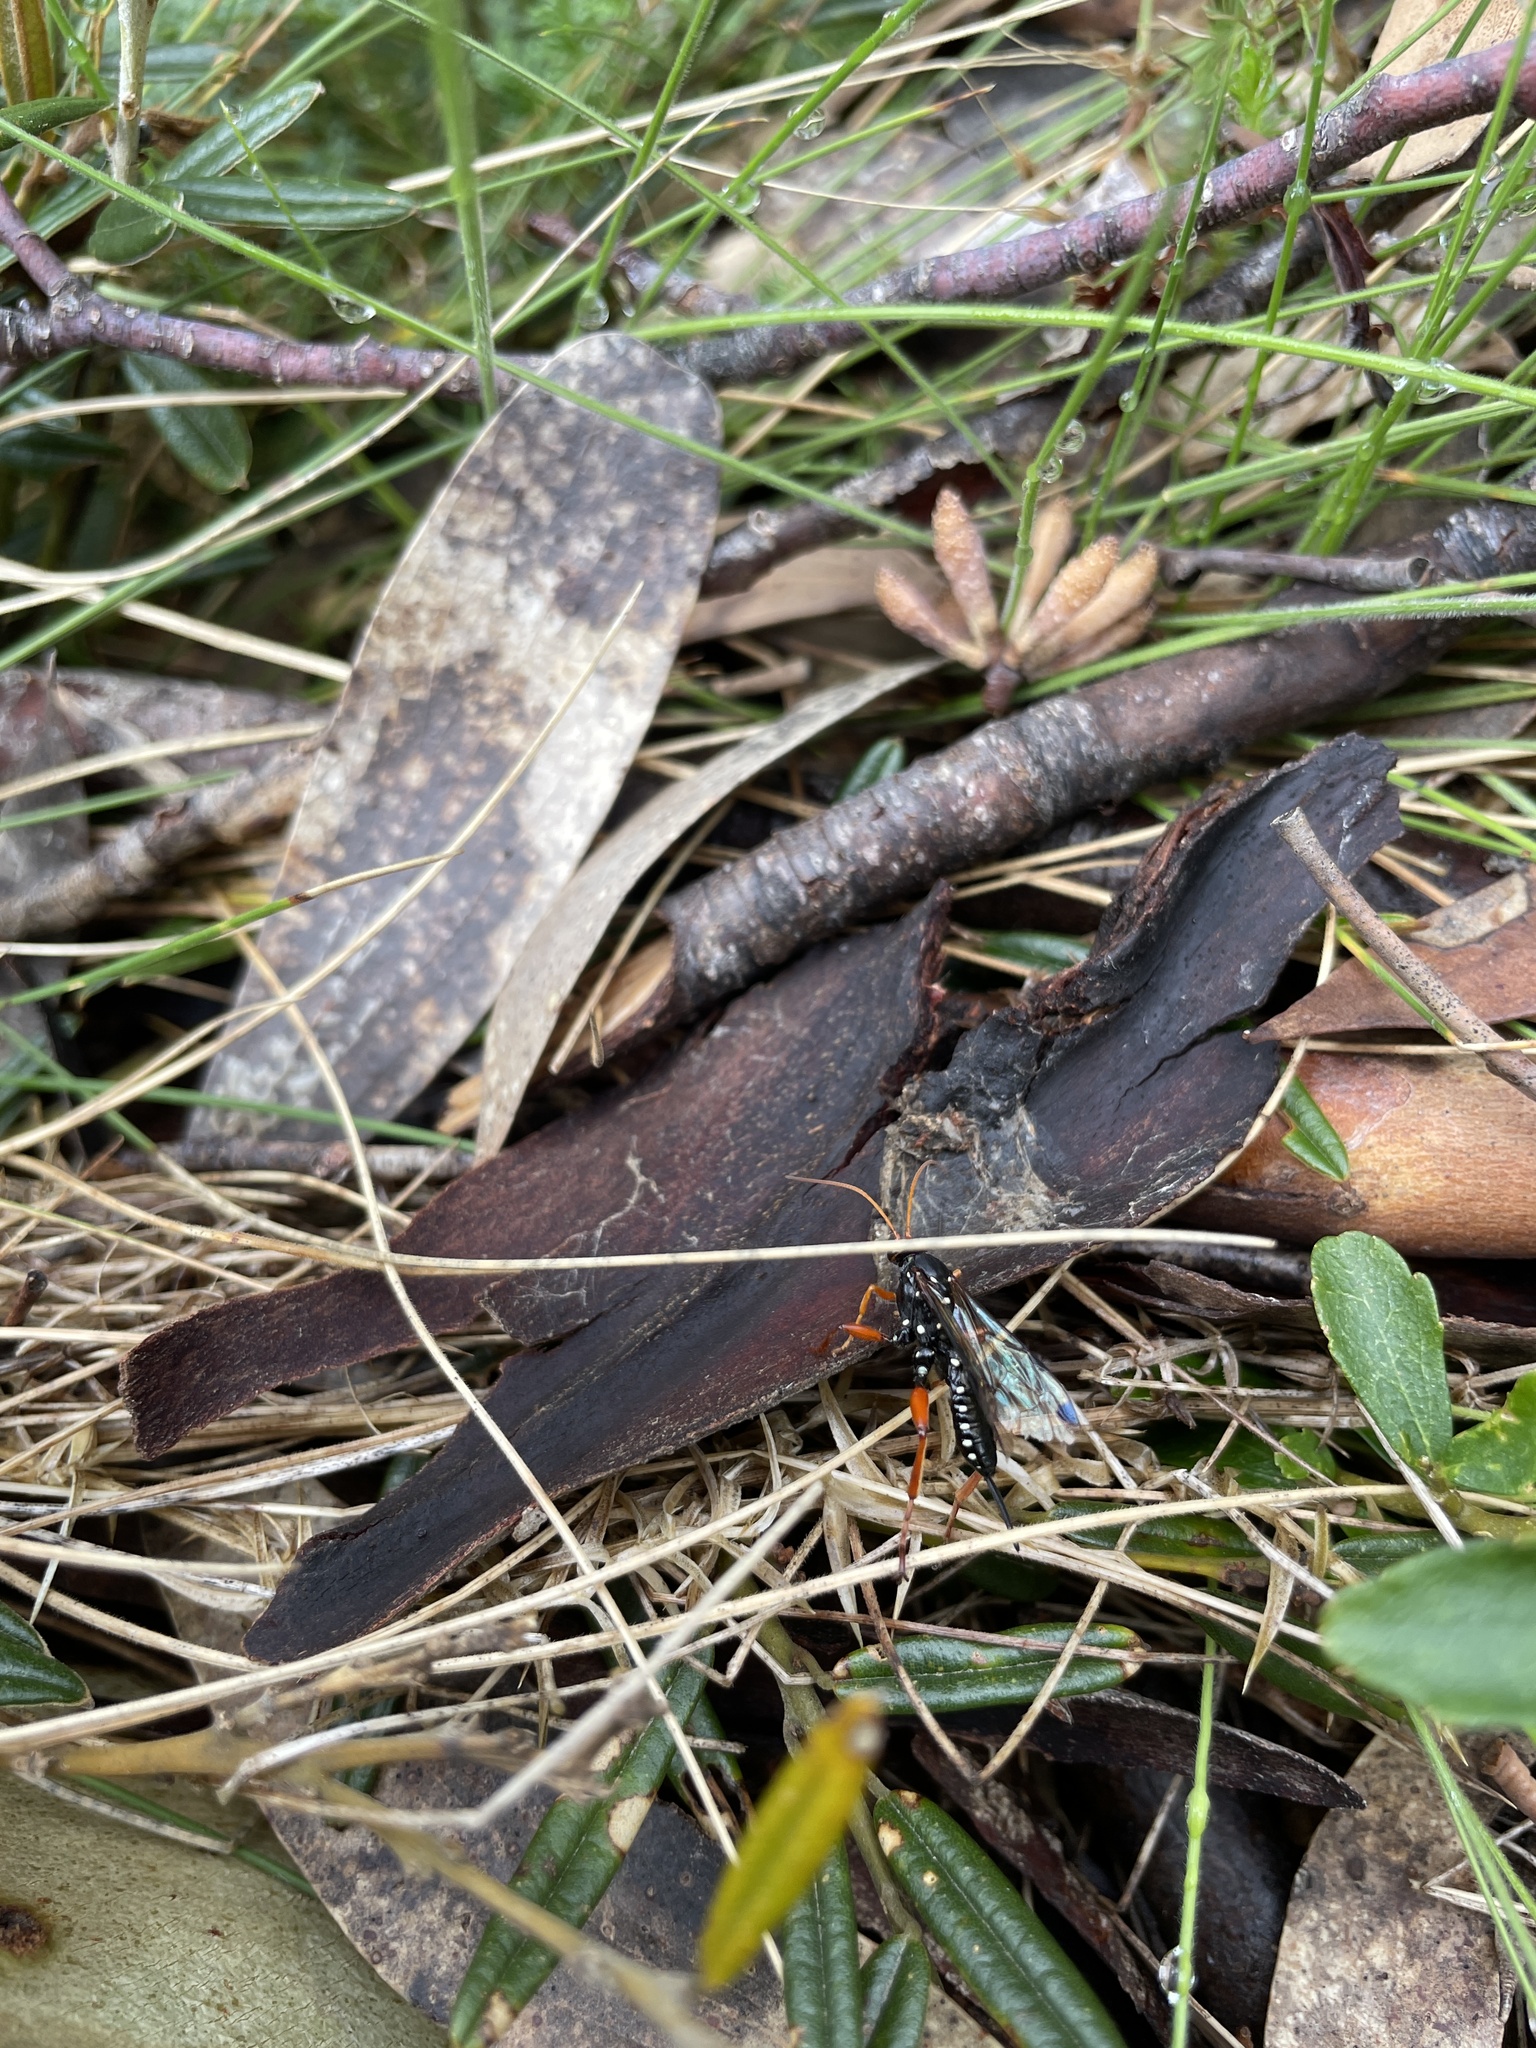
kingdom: Animalia
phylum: Arthropoda
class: Insecta
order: Hymenoptera
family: Ichneumonidae
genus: Echthromorpha
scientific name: Echthromorpha intricatoria
